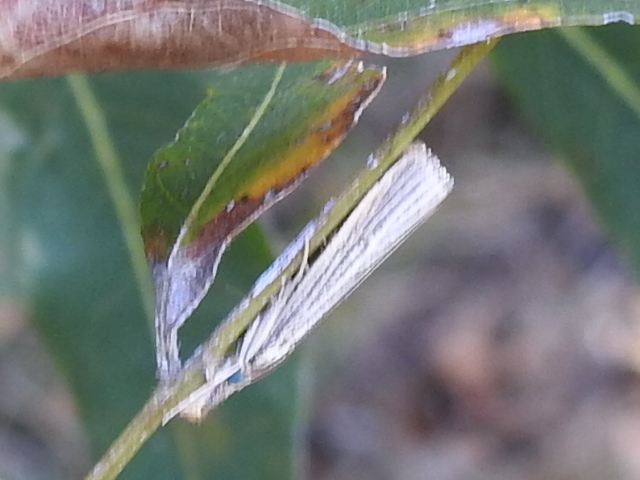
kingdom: Animalia
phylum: Arthropoda
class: Insecta
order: Lepidoptera
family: Crambidae
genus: Agriphila
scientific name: Agriphila vulgivagellus
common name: Vagabond crambus moth
